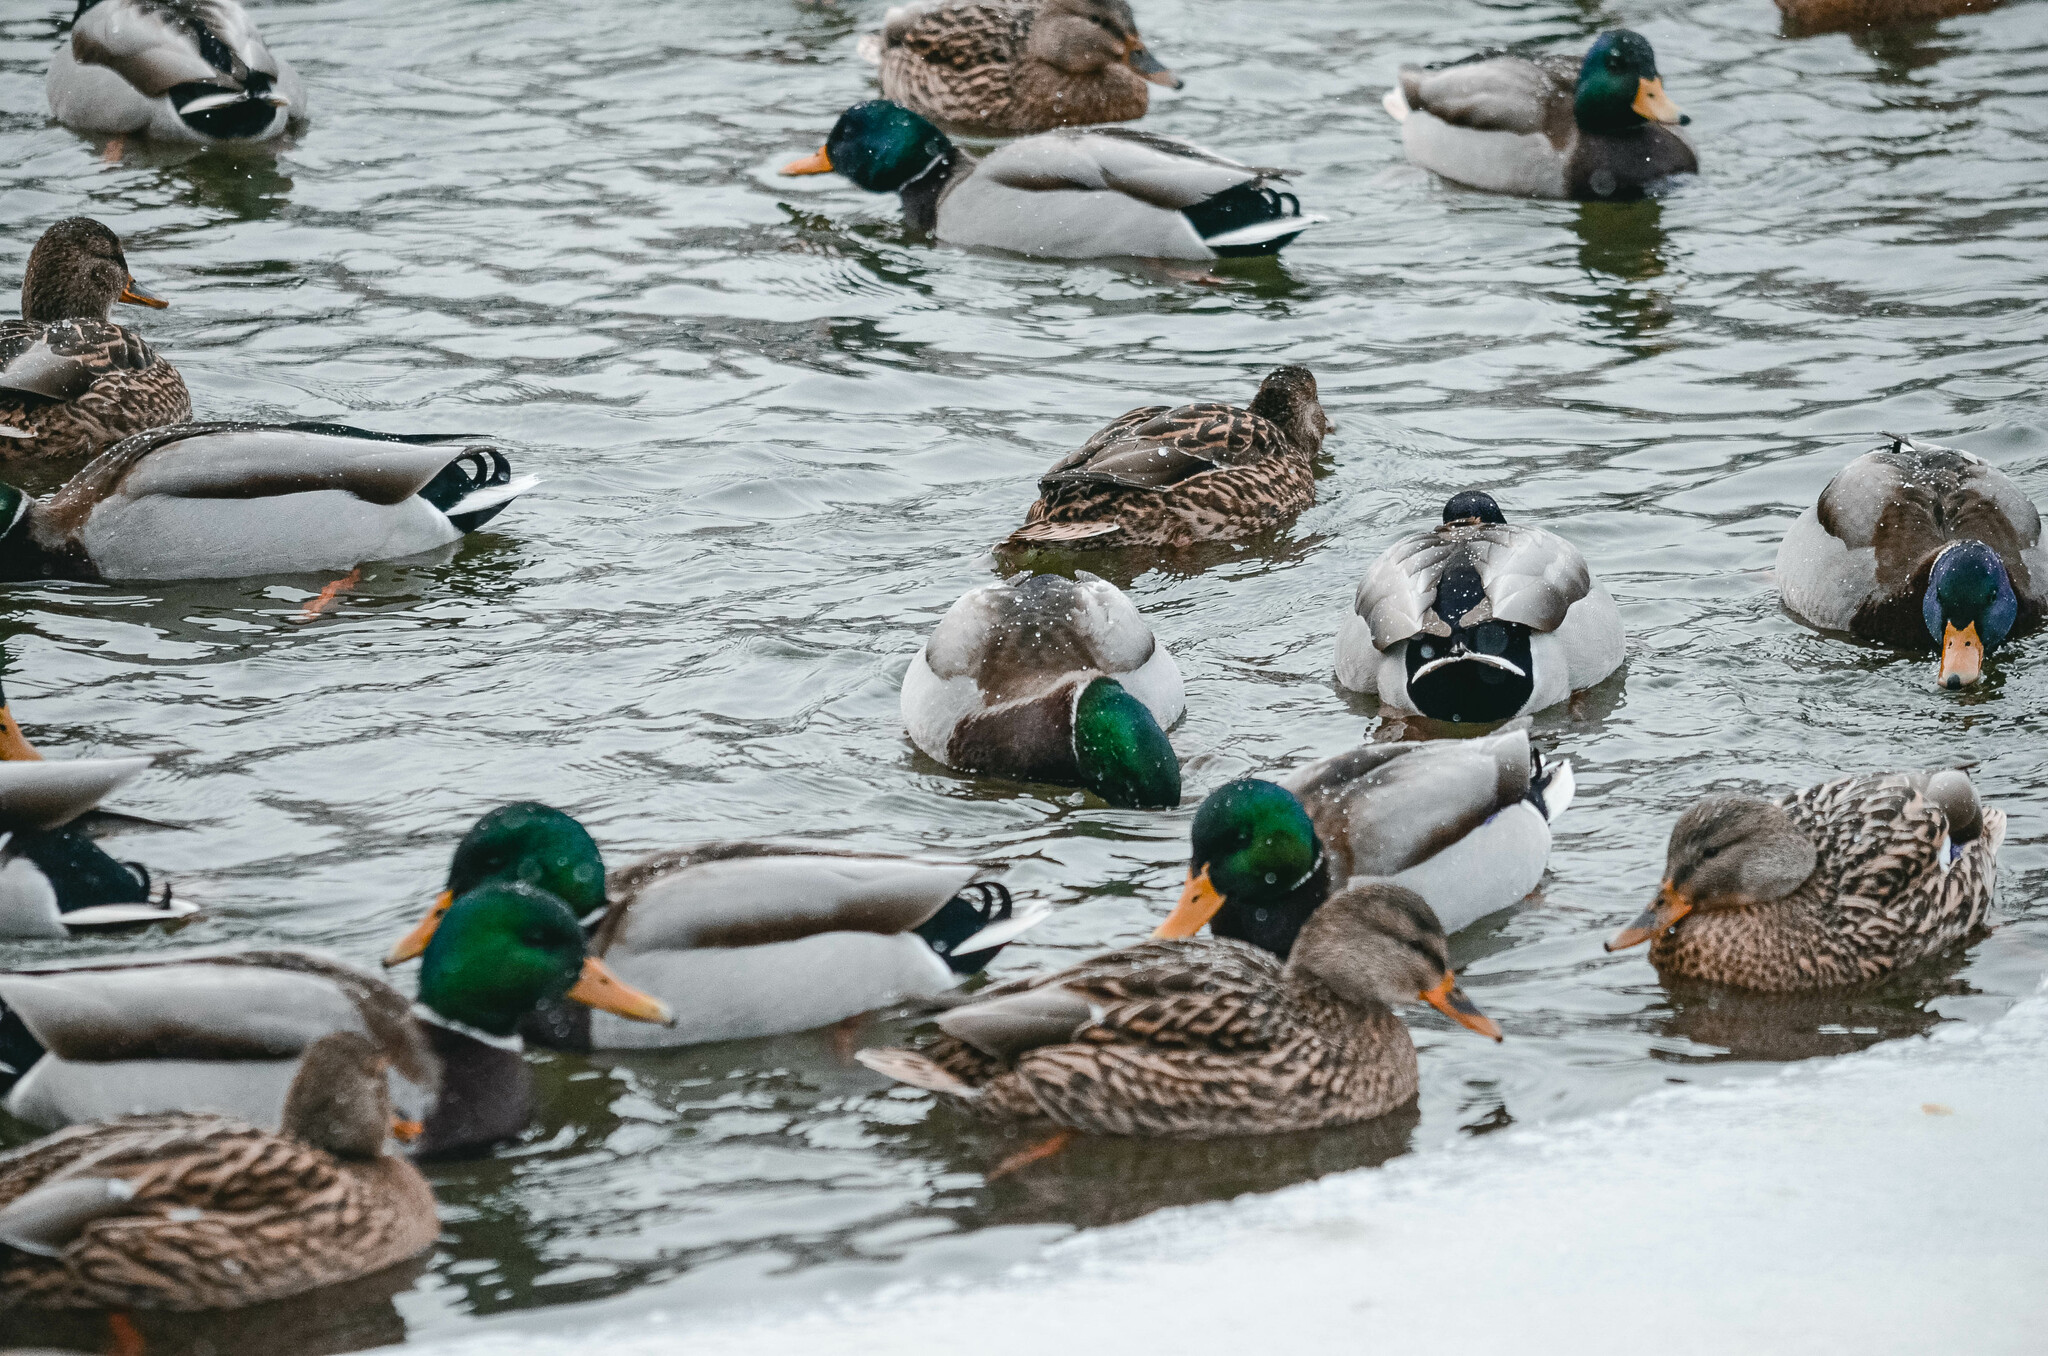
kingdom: Animalia
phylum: Chordata
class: Aves
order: Anseriformes
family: Anatidae
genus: Anas
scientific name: Anas platyrhynchos
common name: Mallard
